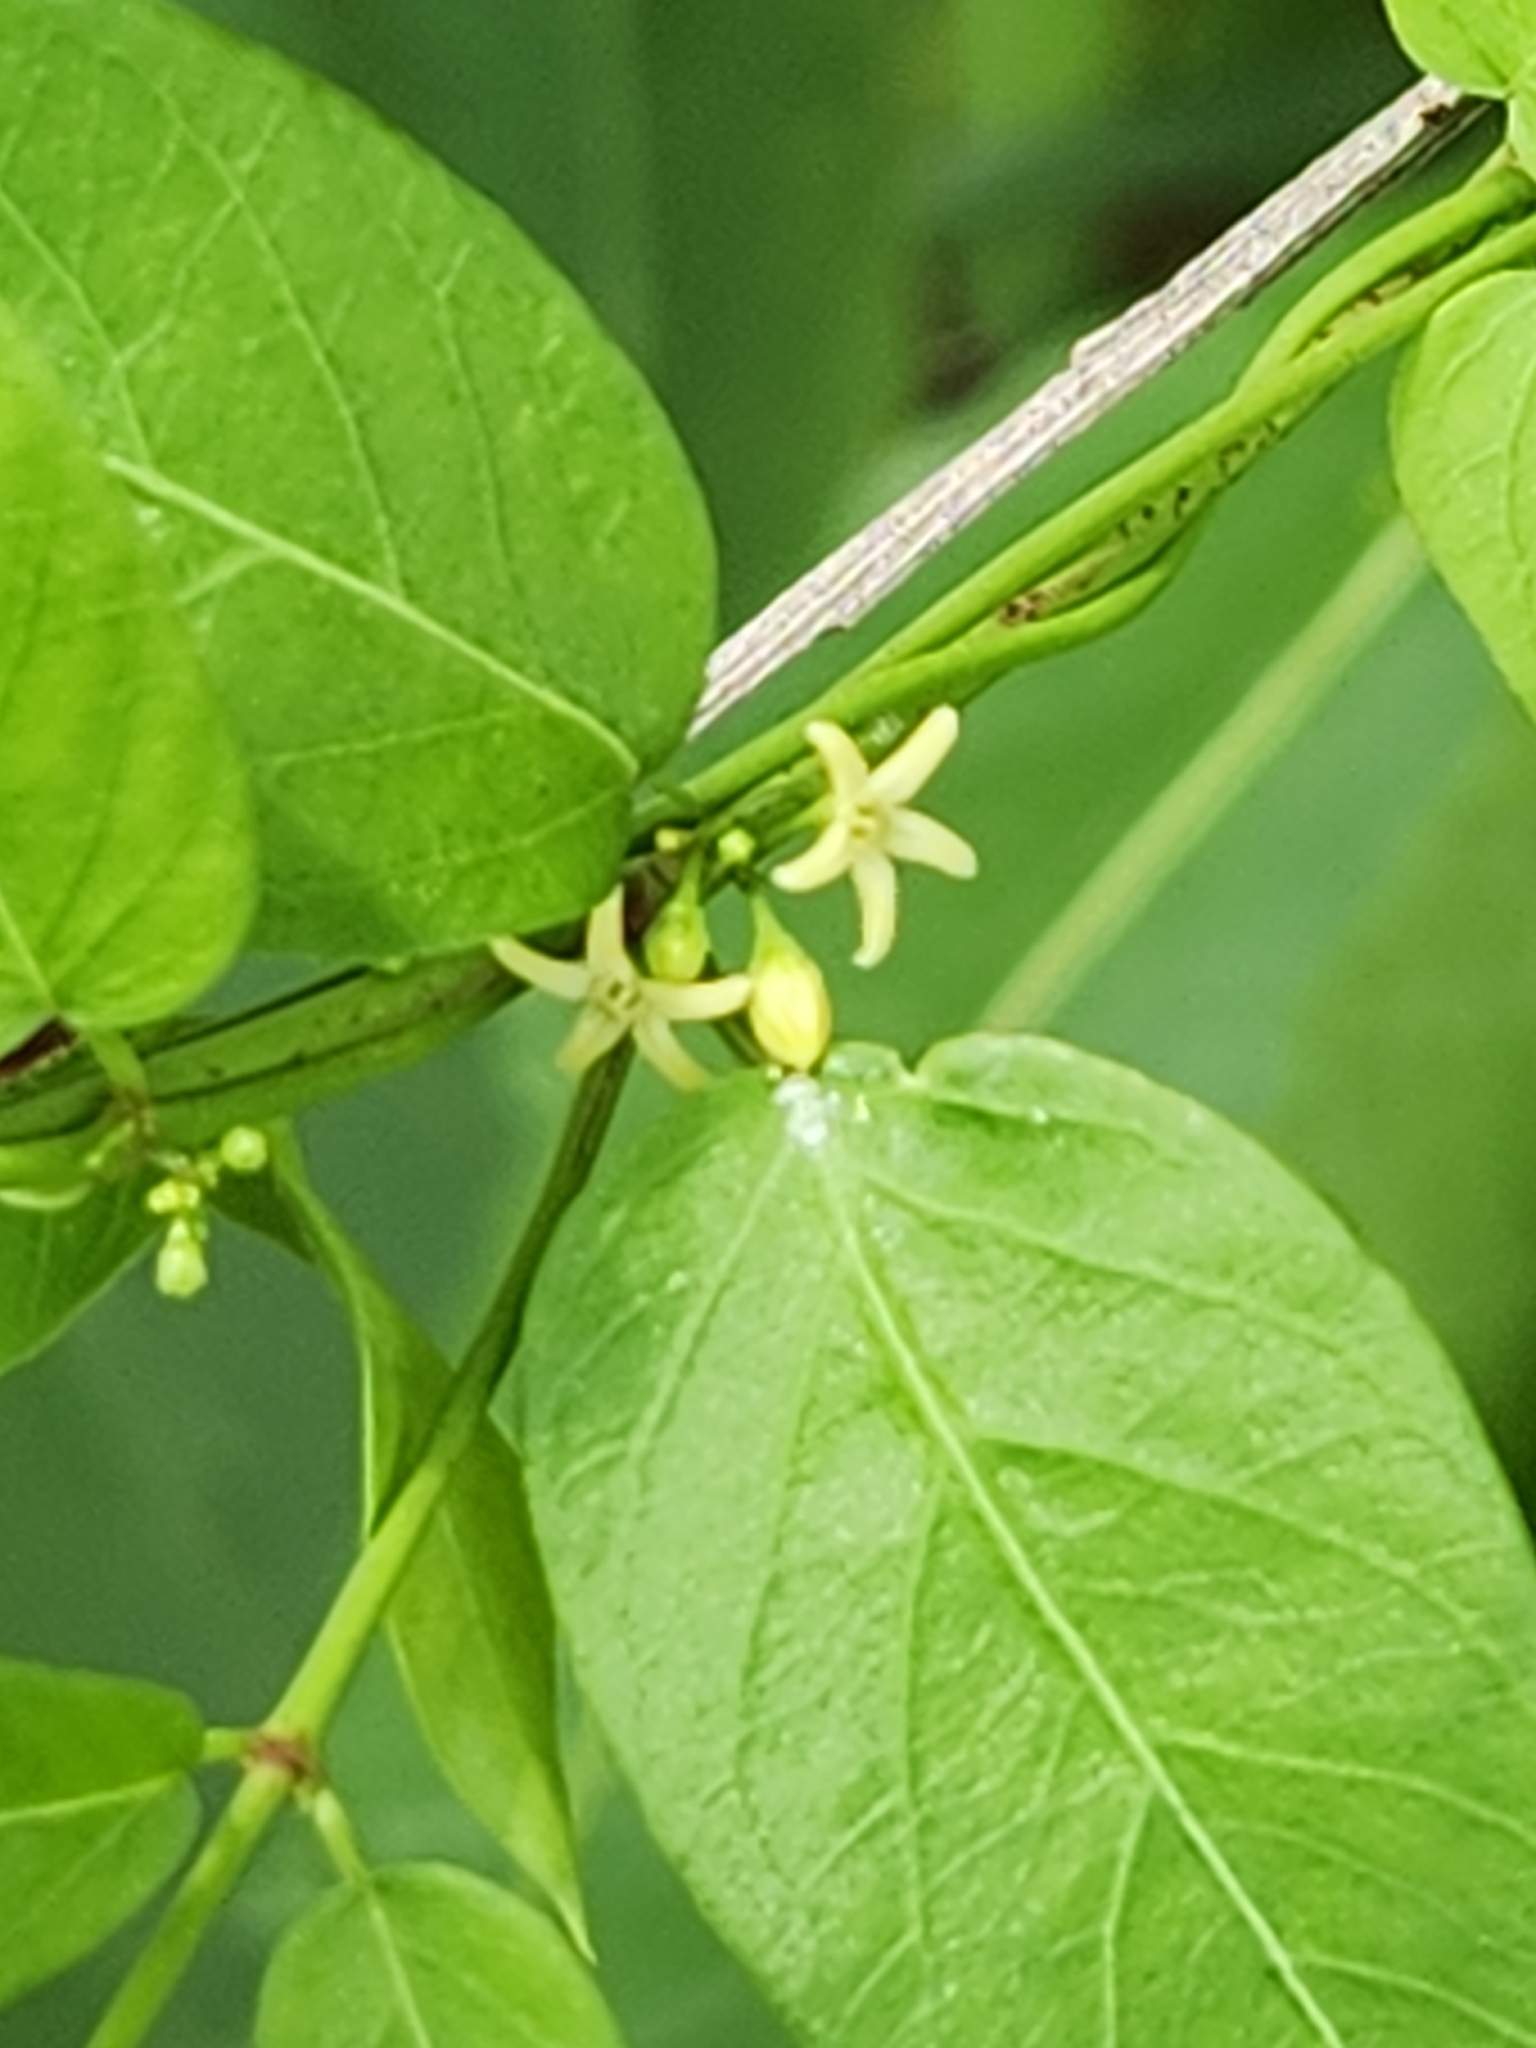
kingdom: Plantae
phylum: Tracheophyta
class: Magnoliopsida
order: Gentianales
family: Apocynaceae
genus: Metastelma
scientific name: Metastelma palmeri
